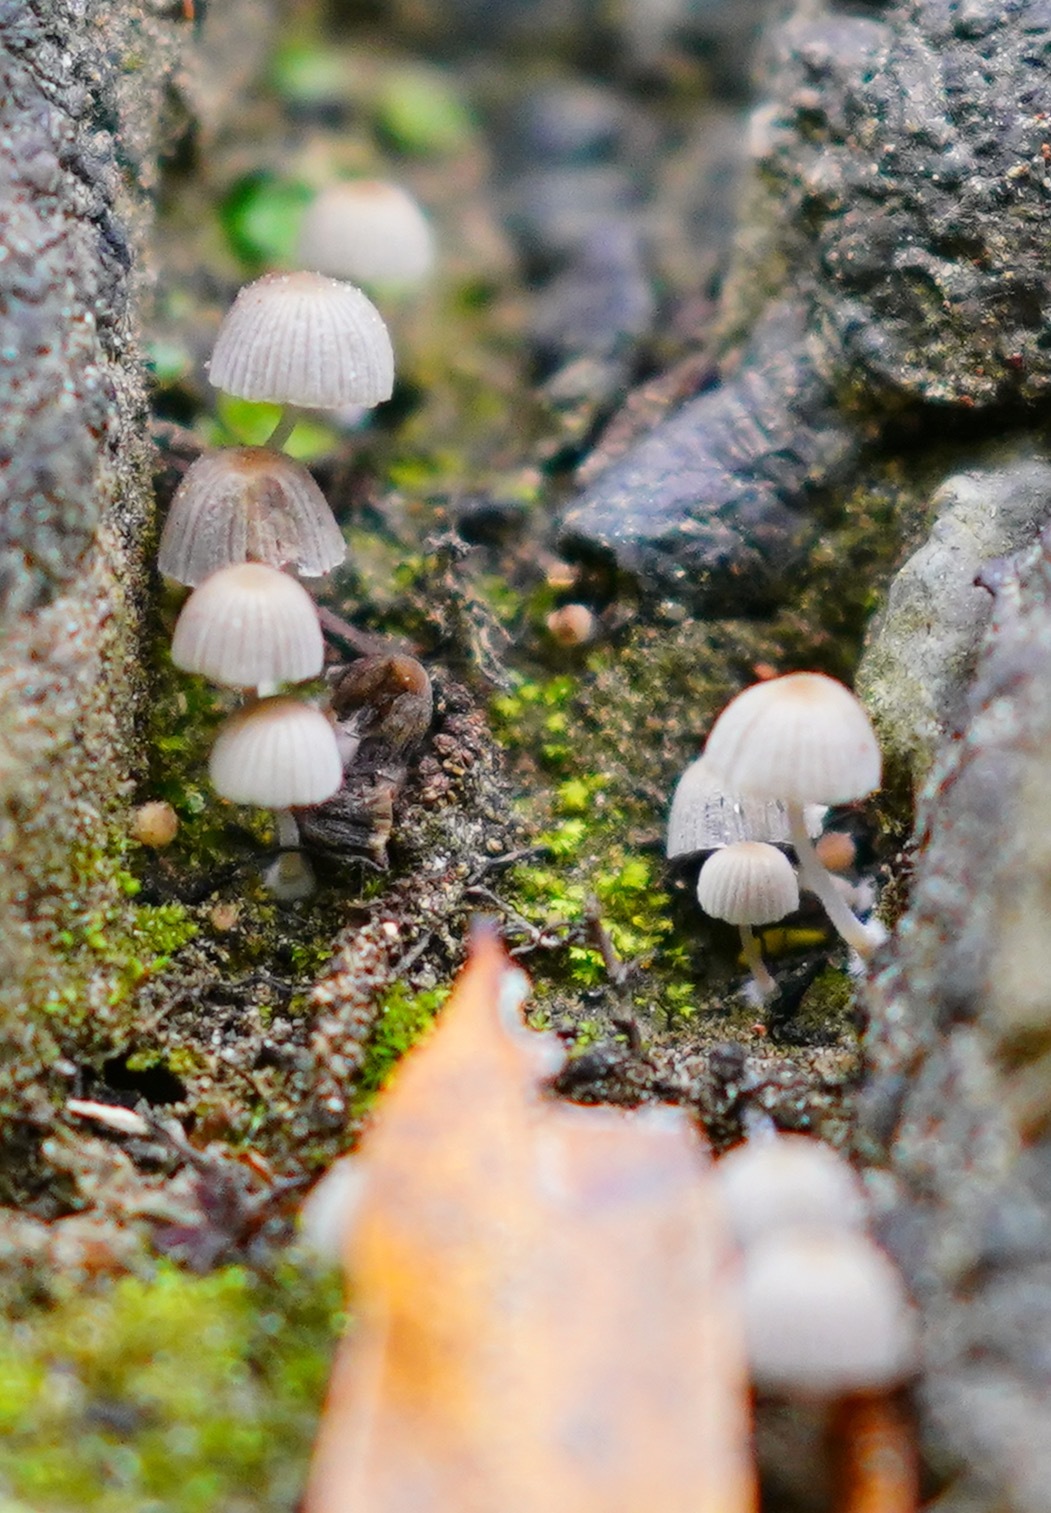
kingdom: Fungi
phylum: Basidiomycota
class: Agaricomycetes
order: Agaricales
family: Psathyrellaceae
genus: Coprinellus
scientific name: Coprinellus disseminatus
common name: Fairies' bonnets
